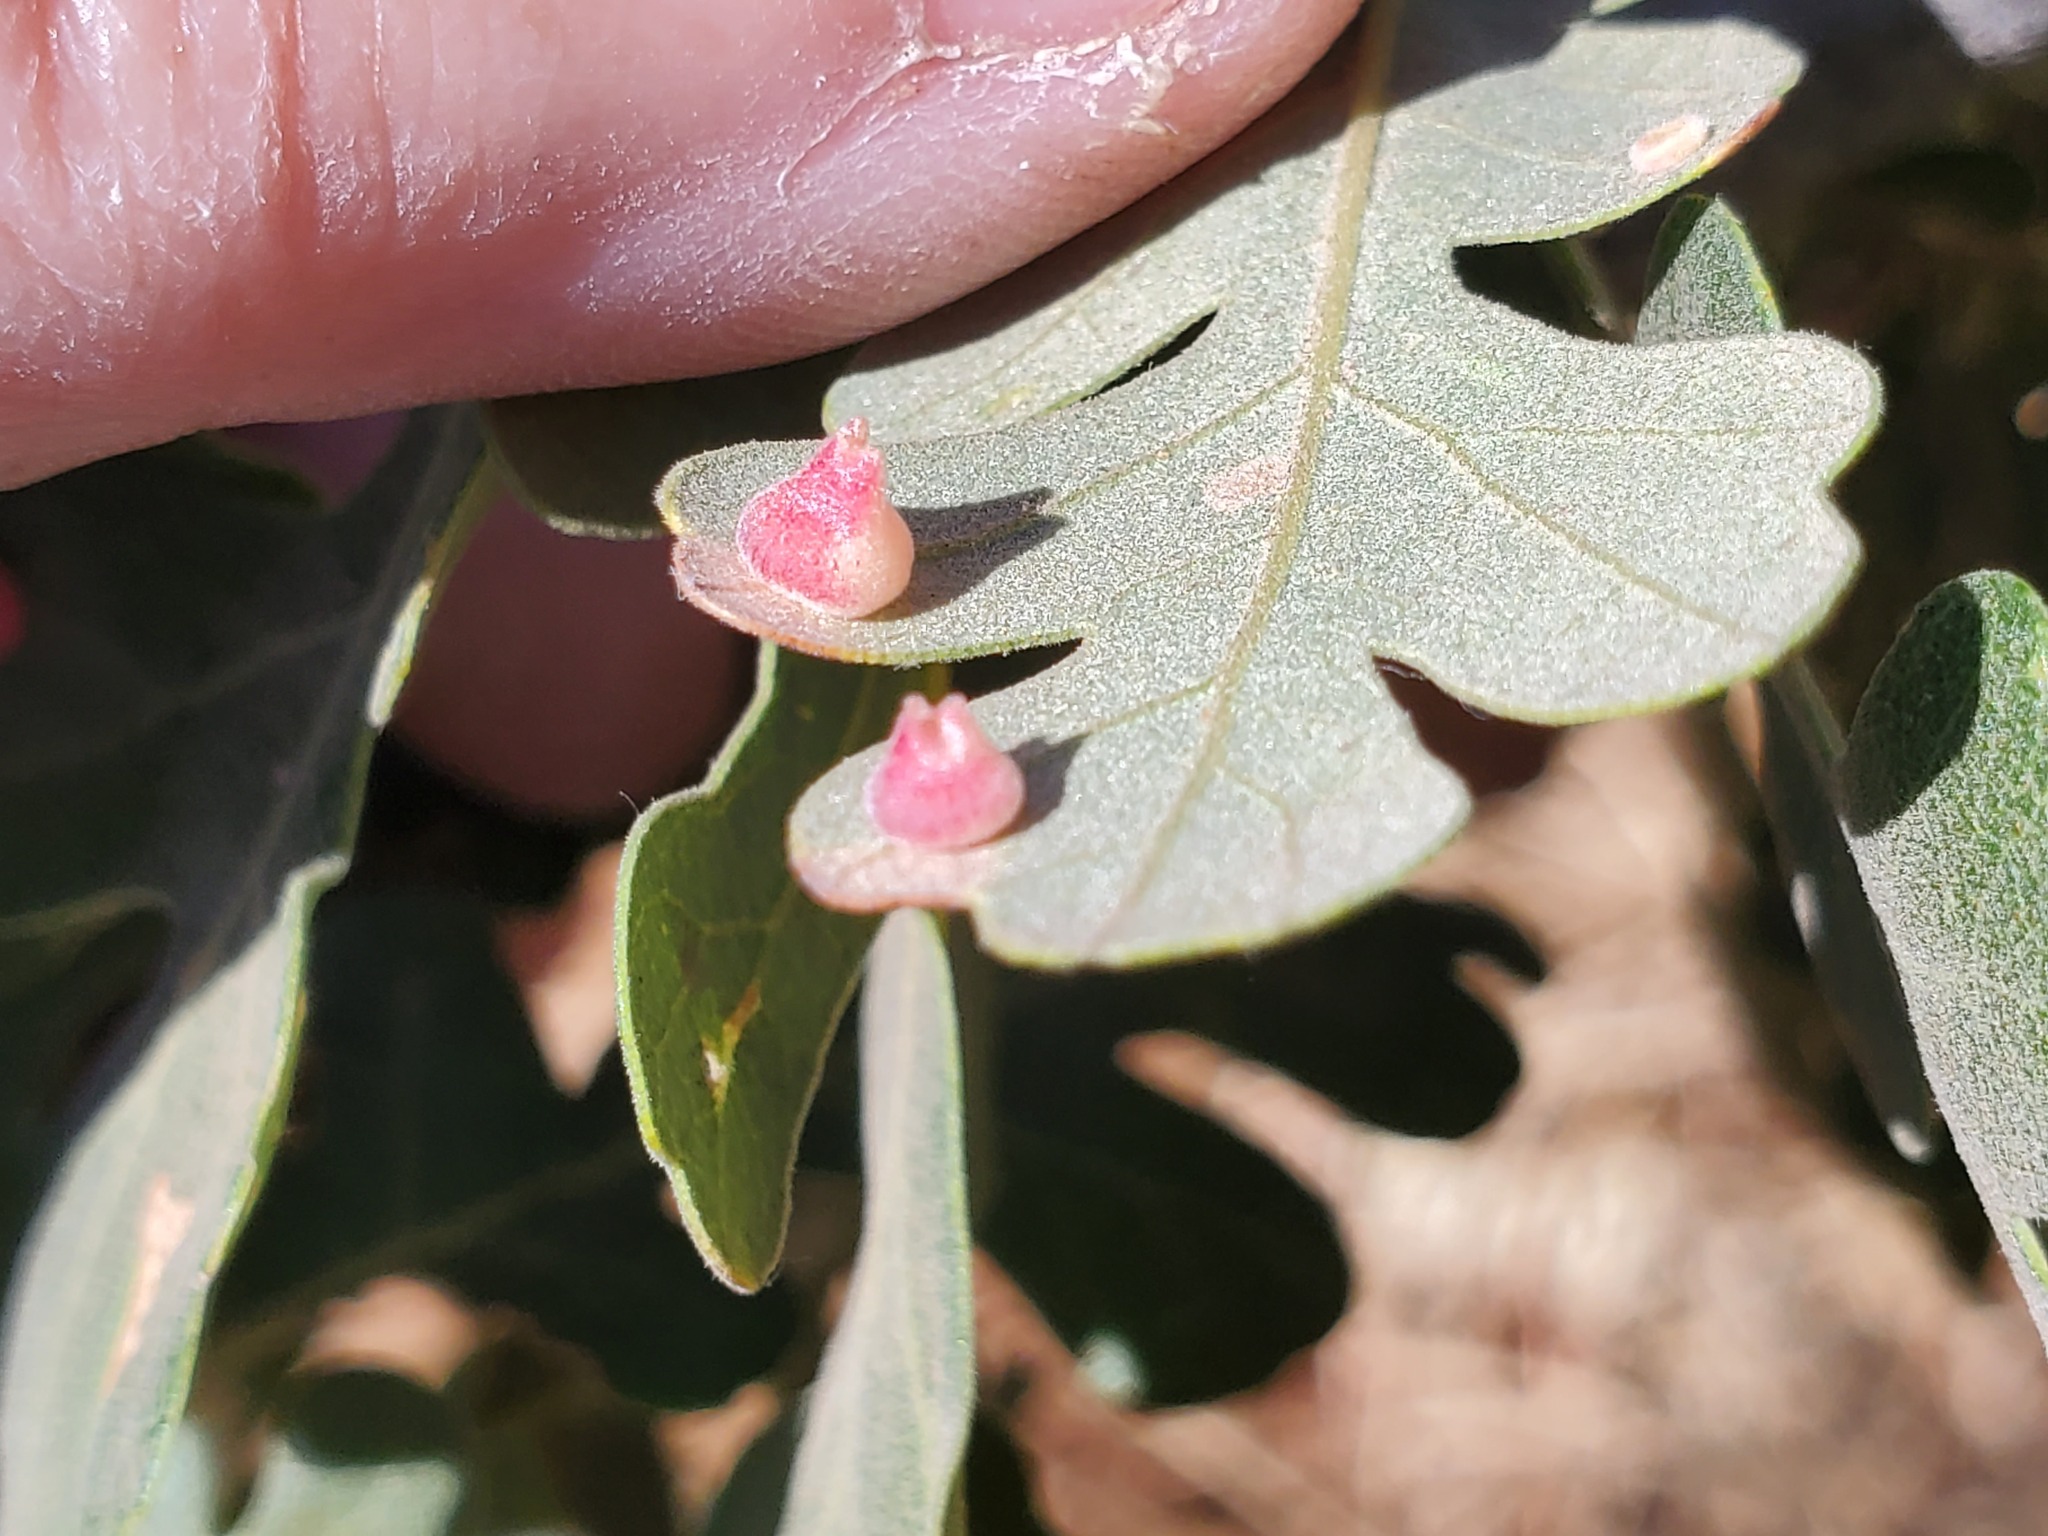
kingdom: Animalia
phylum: Arthropoda
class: Insecta
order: Hymenoptera
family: Cynipidae
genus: Andricus
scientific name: Andricus
